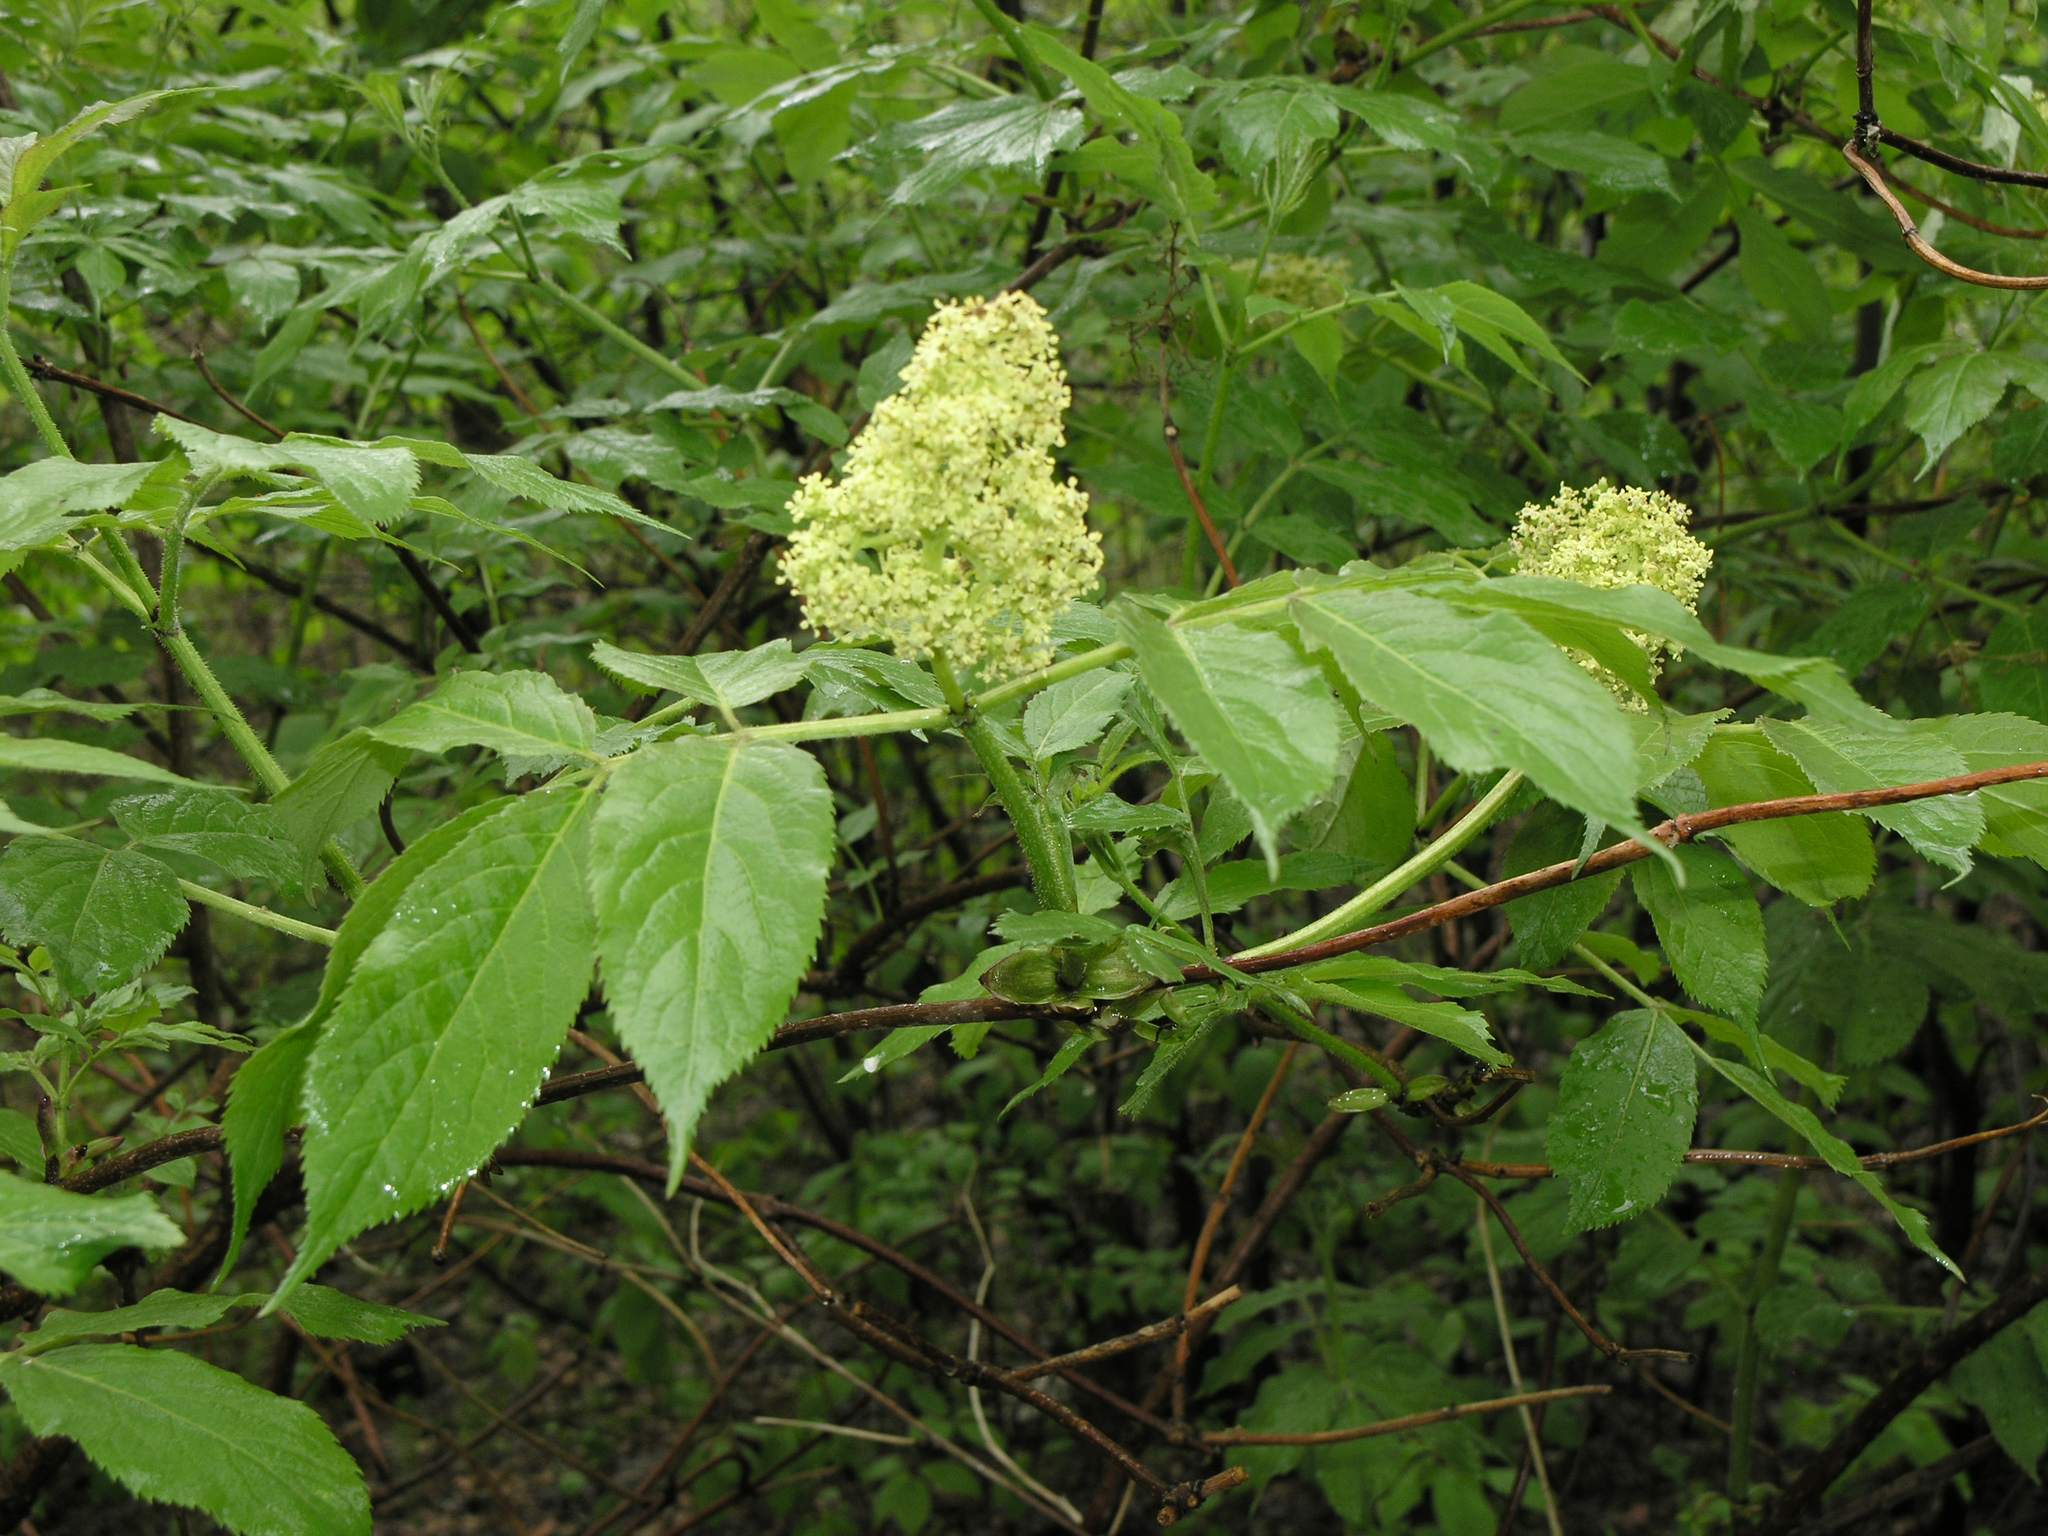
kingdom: Plantae
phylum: Tracheophyta
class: Magnoliopsida
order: Dipsacales
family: Viburnaceae
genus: Sambucus
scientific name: Sambucus sibirica
